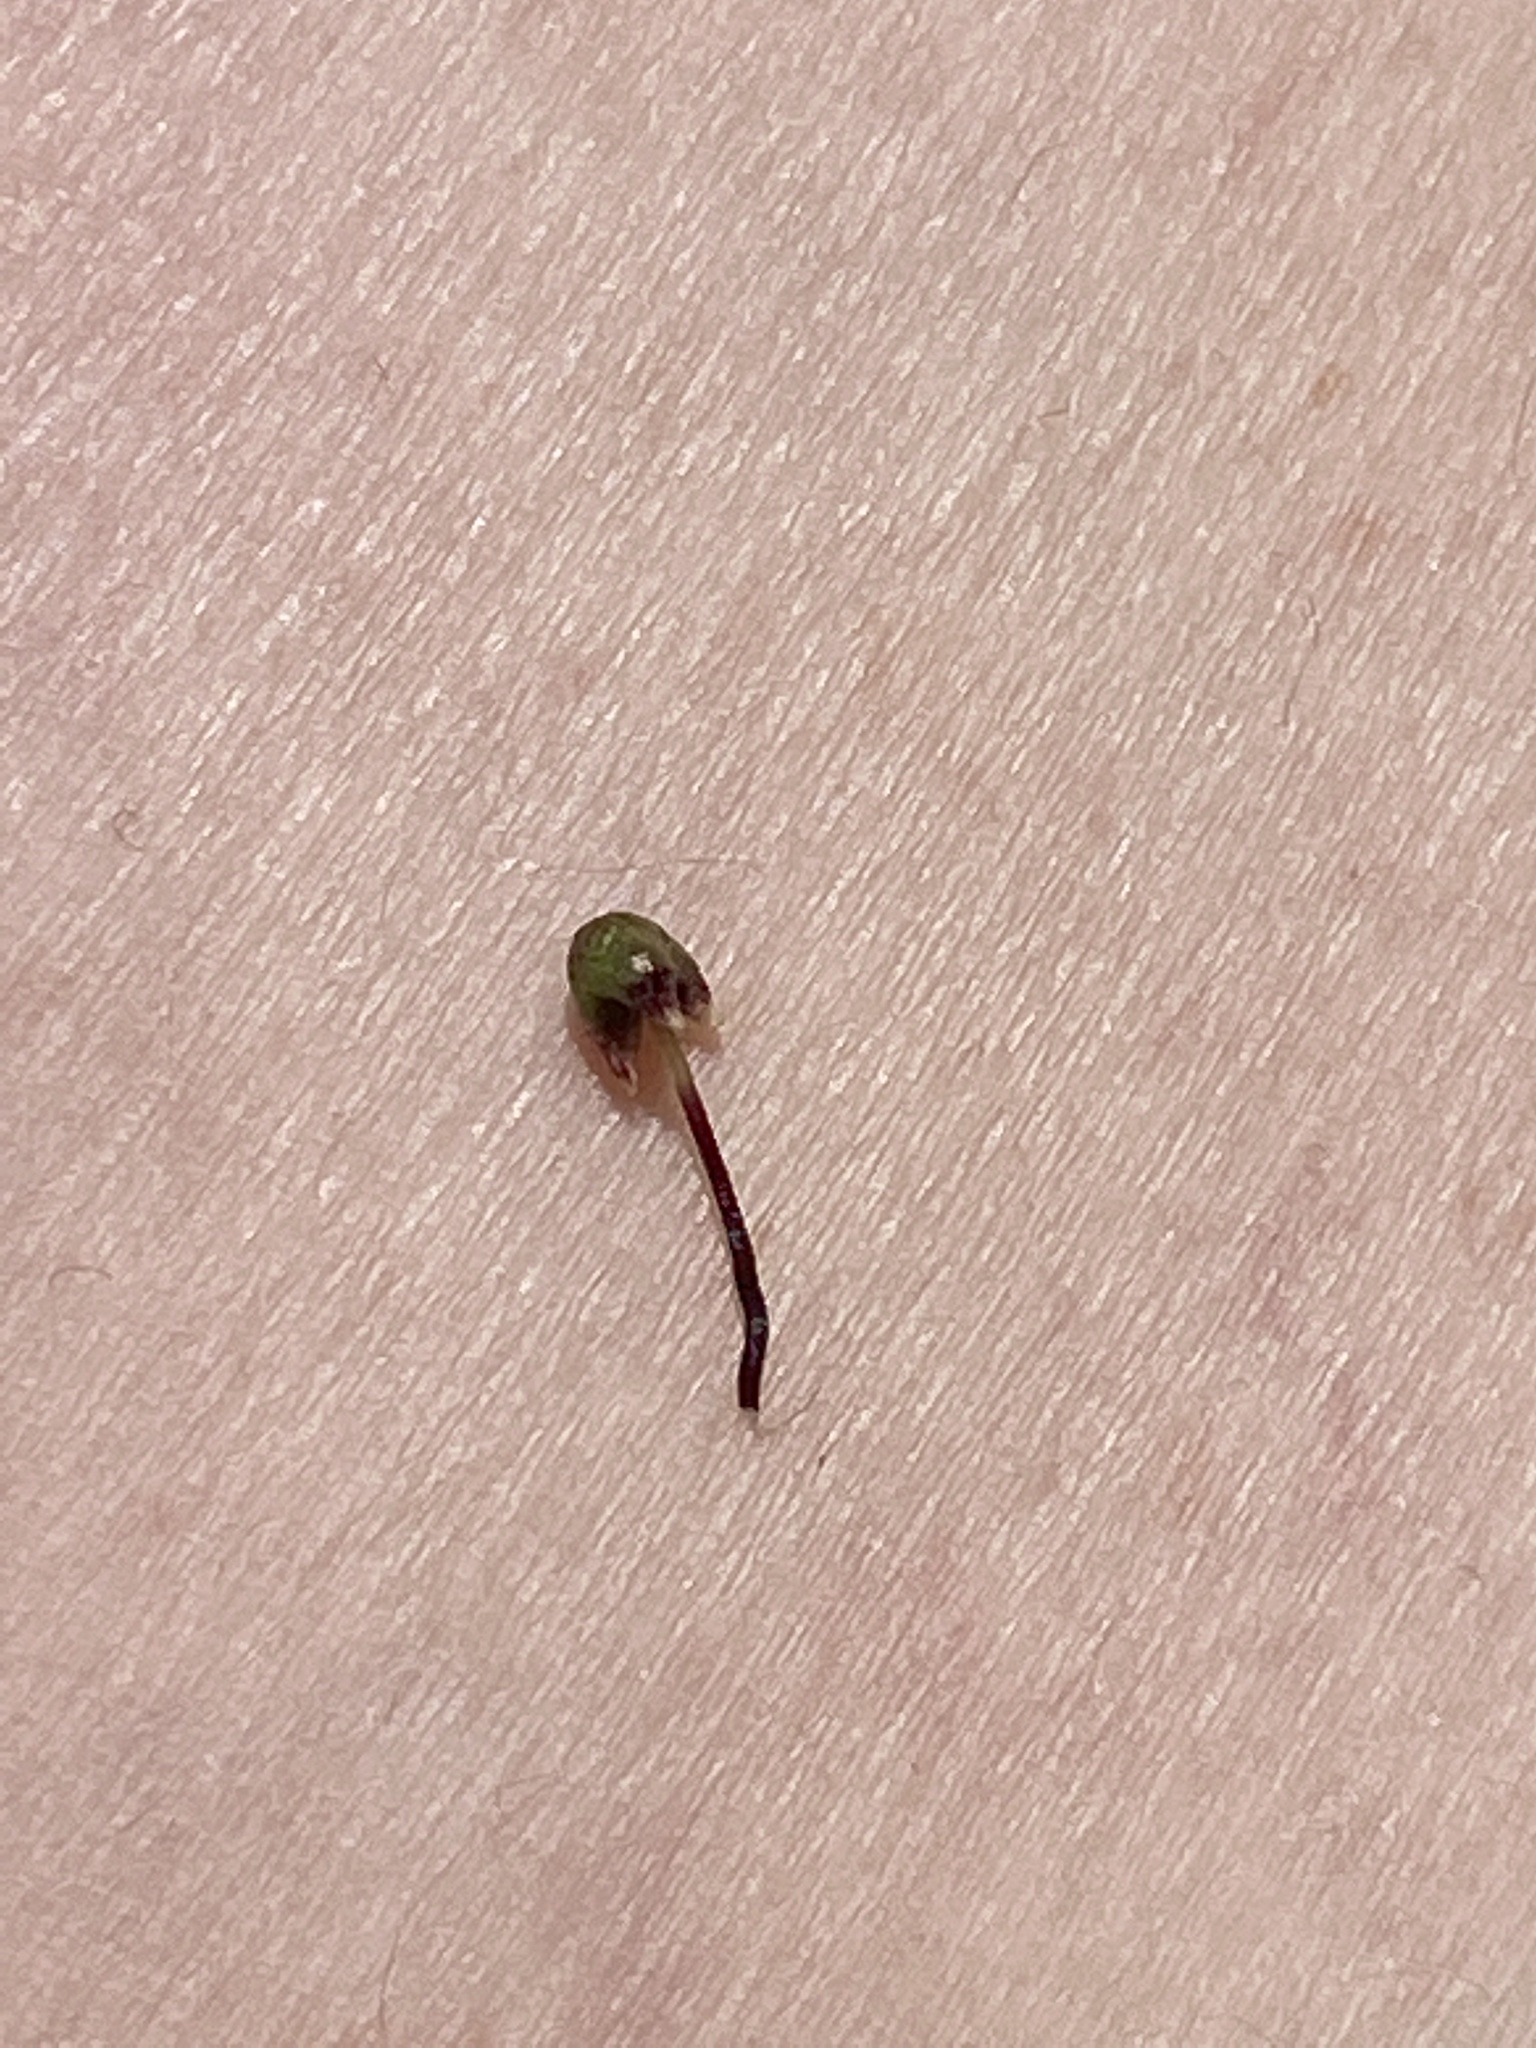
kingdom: Plantae
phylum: Marchantiophyta
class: Marchantiopsida
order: Marchantiales
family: Aytoniaceae
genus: Asterella
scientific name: Asterella tenella
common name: Delicate starwort
